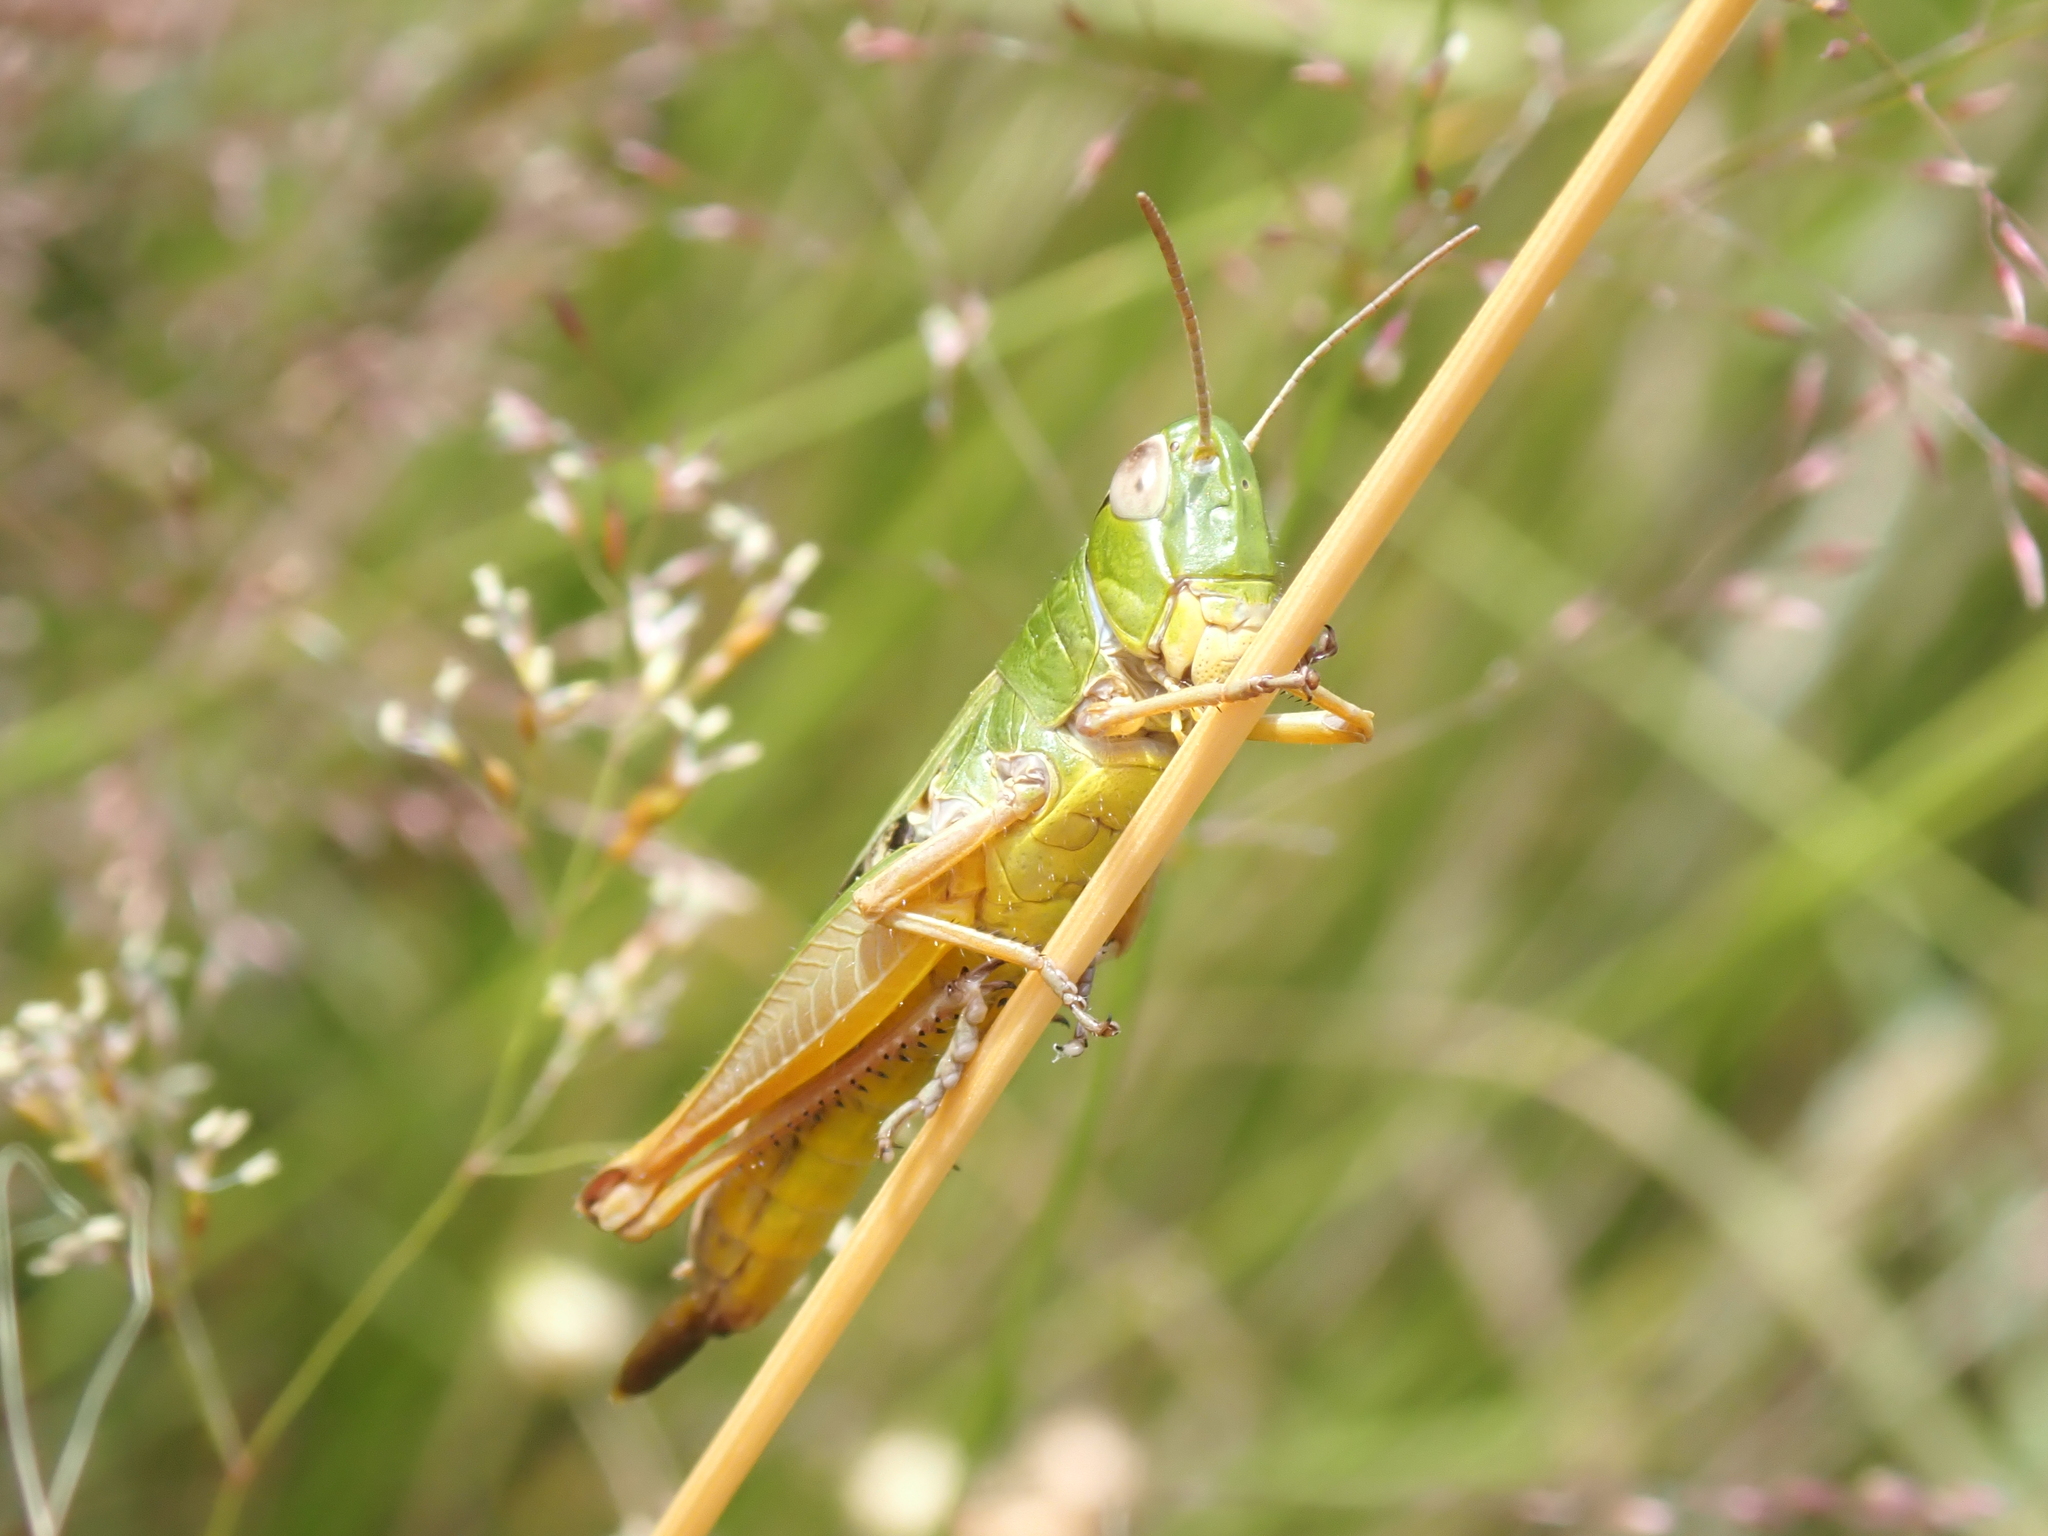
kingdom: Animalia
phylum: Arthropoda
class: Insecta
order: Orthoptera
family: Acrididae
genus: Pseudochorthippus
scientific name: Pseudochorthippus parallelus
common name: Meadow grasshopper
